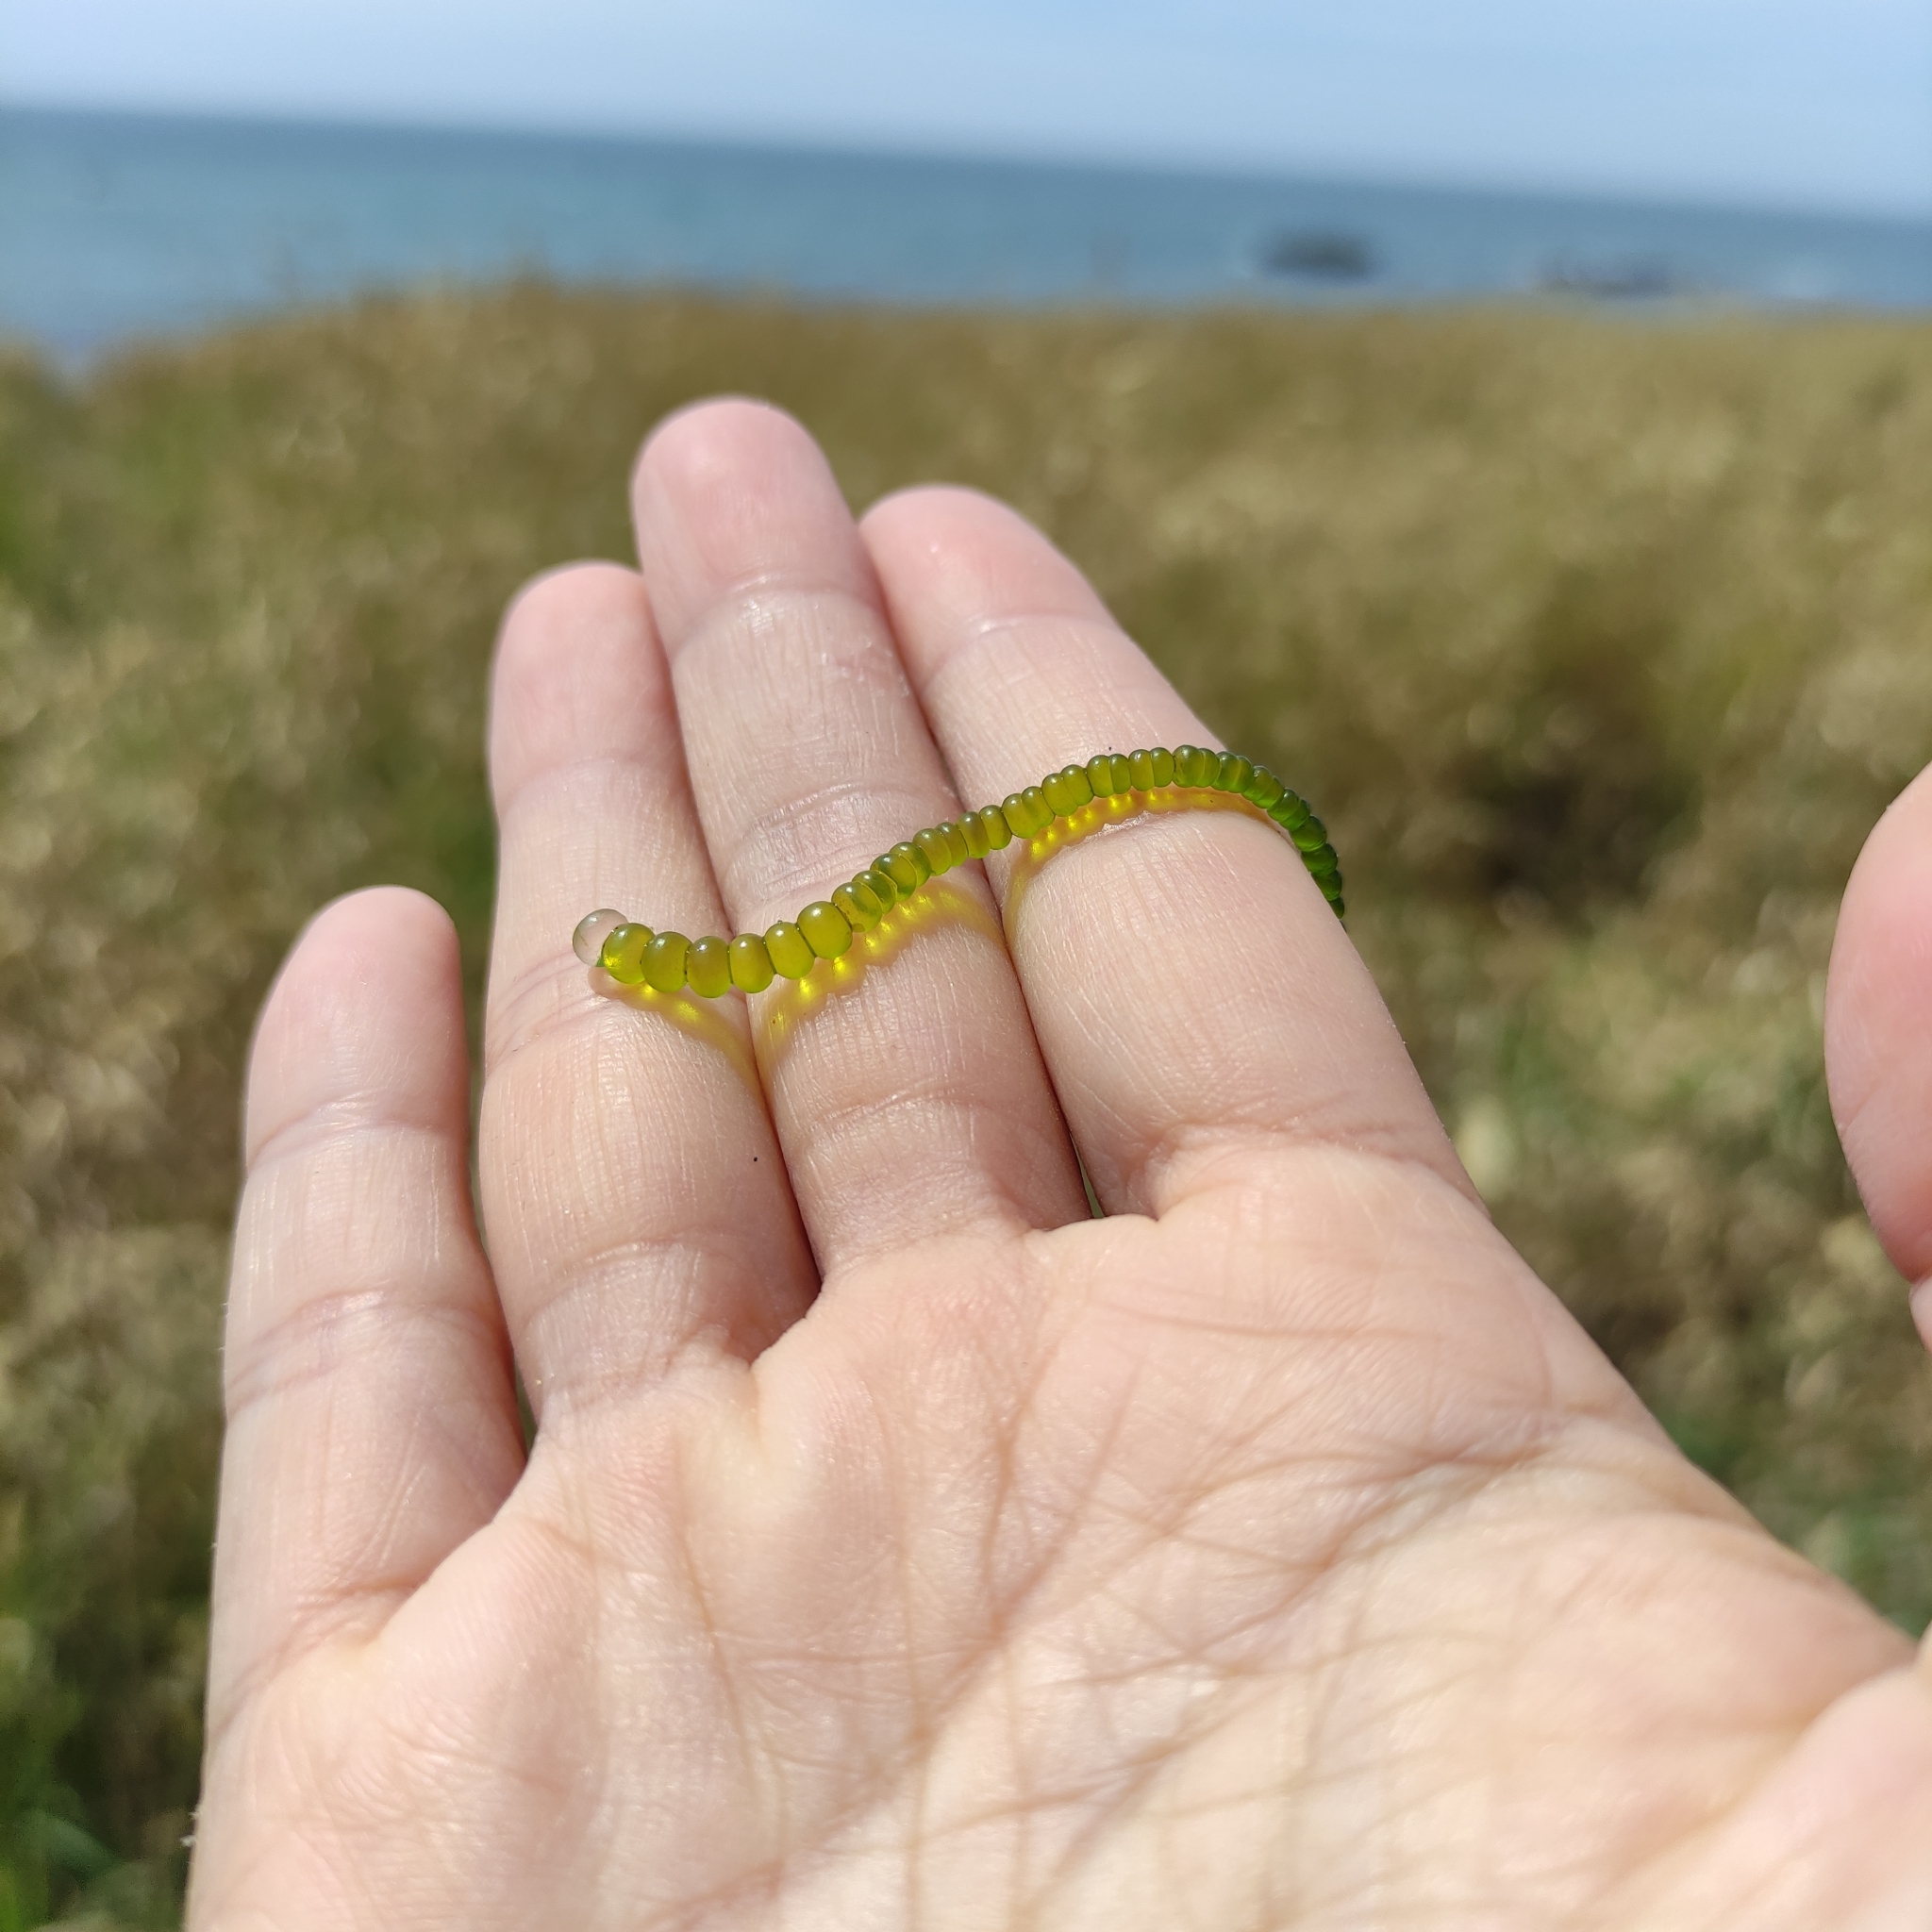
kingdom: Plantae
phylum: Chlorophyta
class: Ulvophyceae
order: Cladophorales
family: Cladophoraceae
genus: Chaetomorpha
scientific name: Chaetomorpha coliformis
